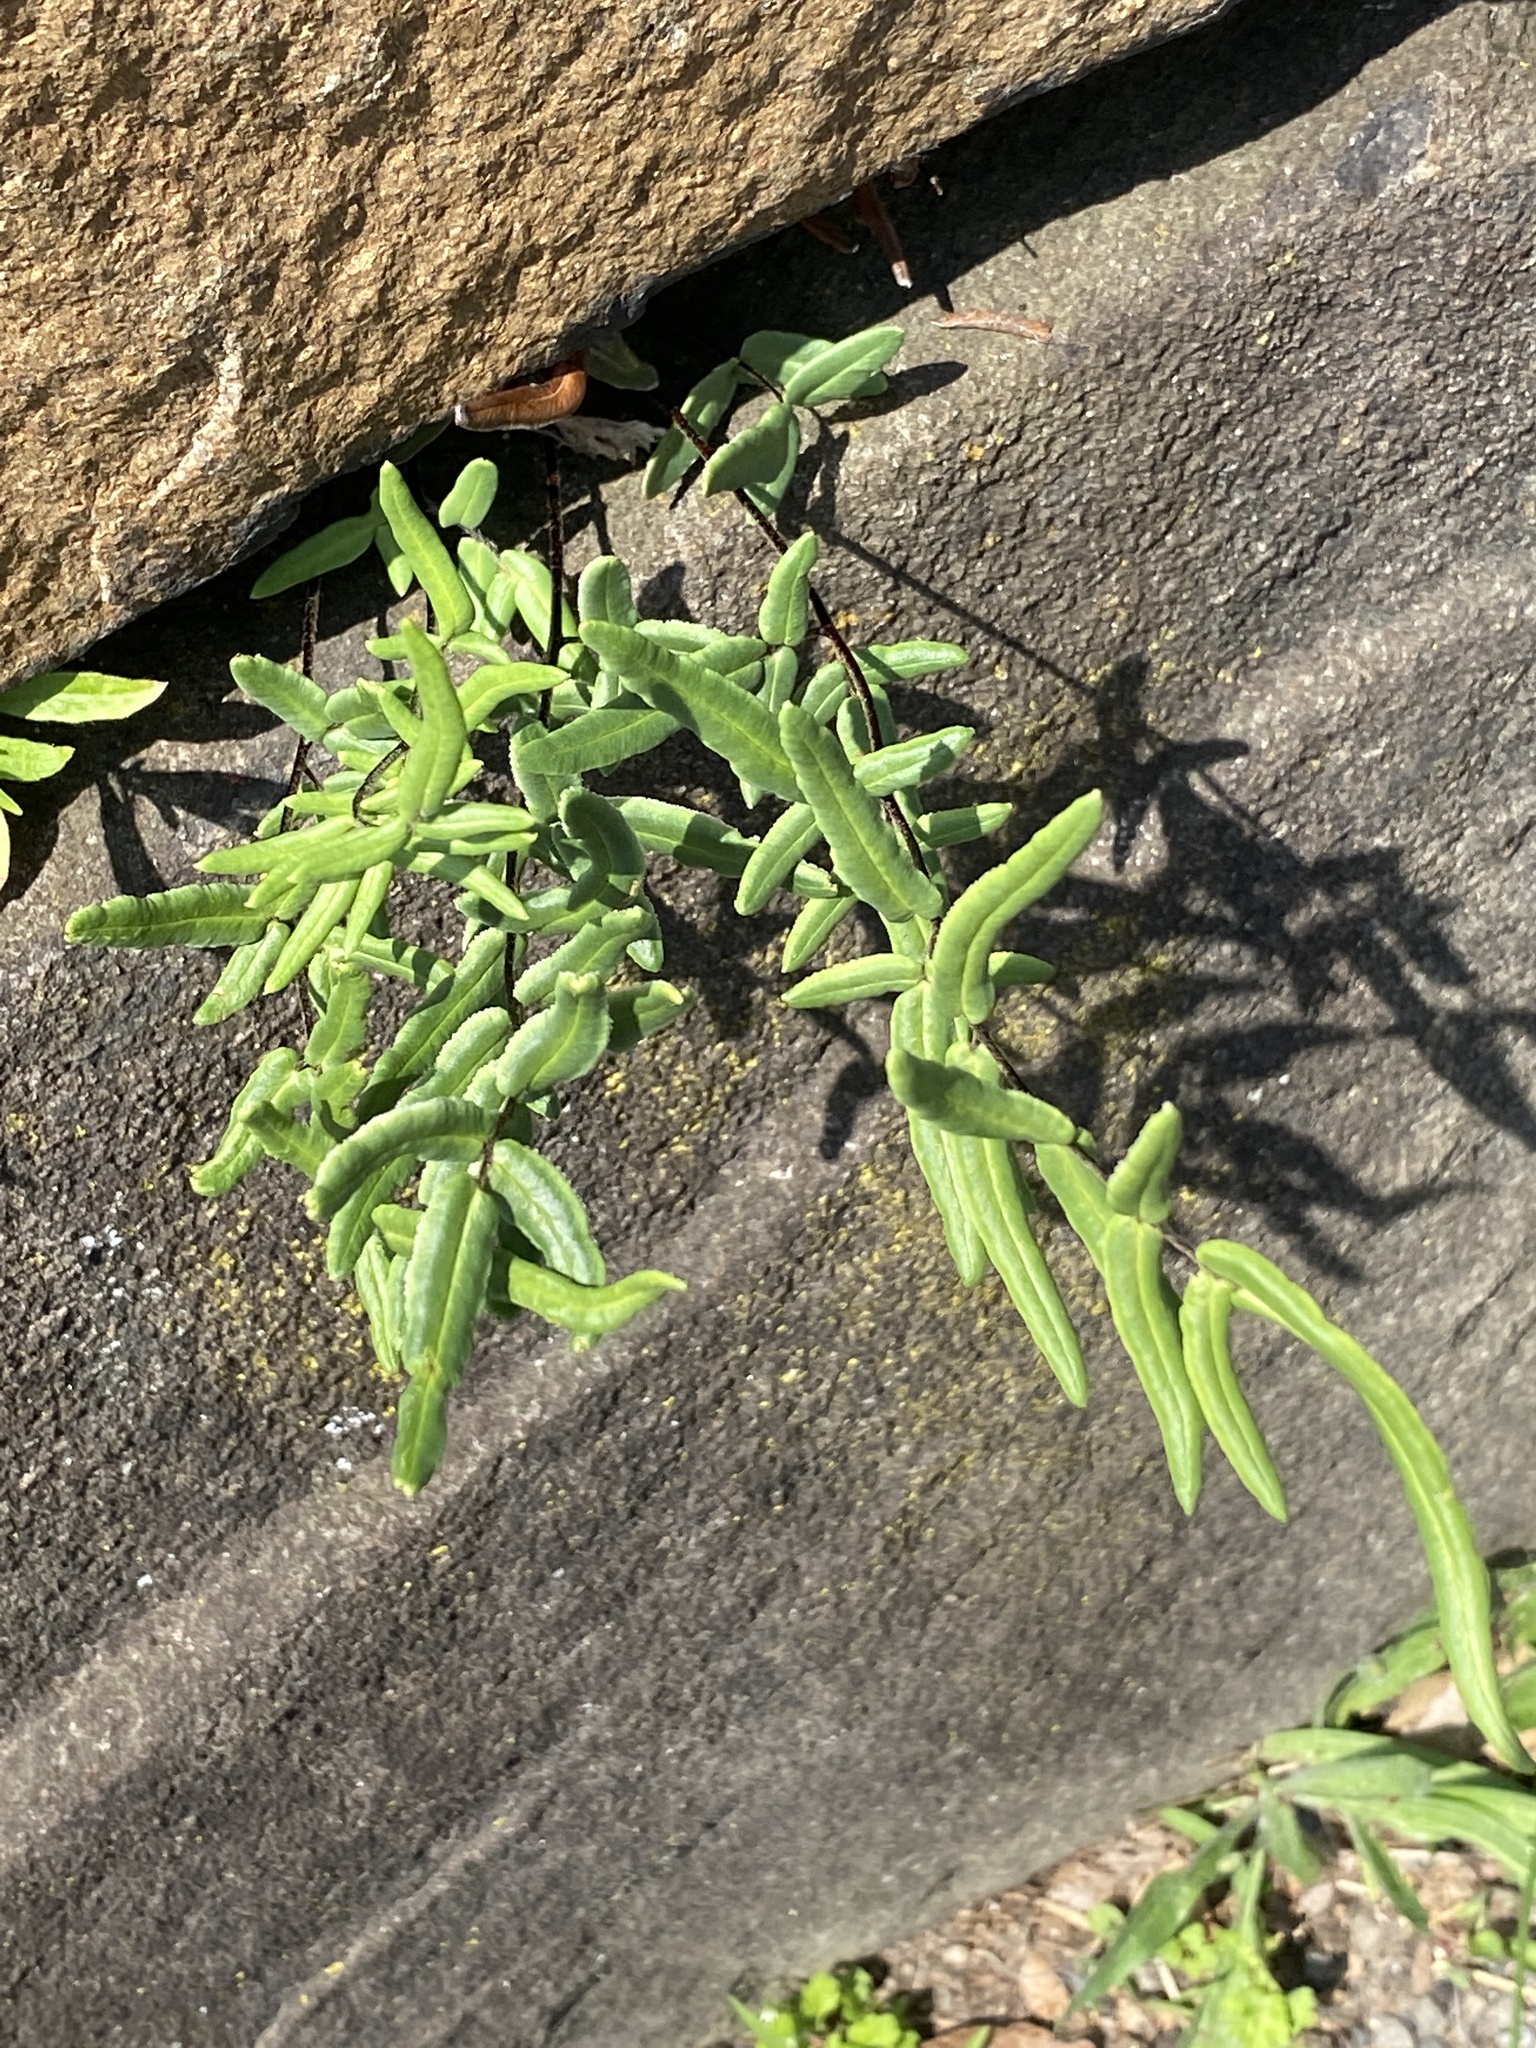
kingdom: Plantae
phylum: Tracheophyta
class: Polypodiopsida
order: Polypodiales
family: Pteridaceae
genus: Pellaea
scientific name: Pellaea atropurpurea
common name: Hairy cliffbrake
